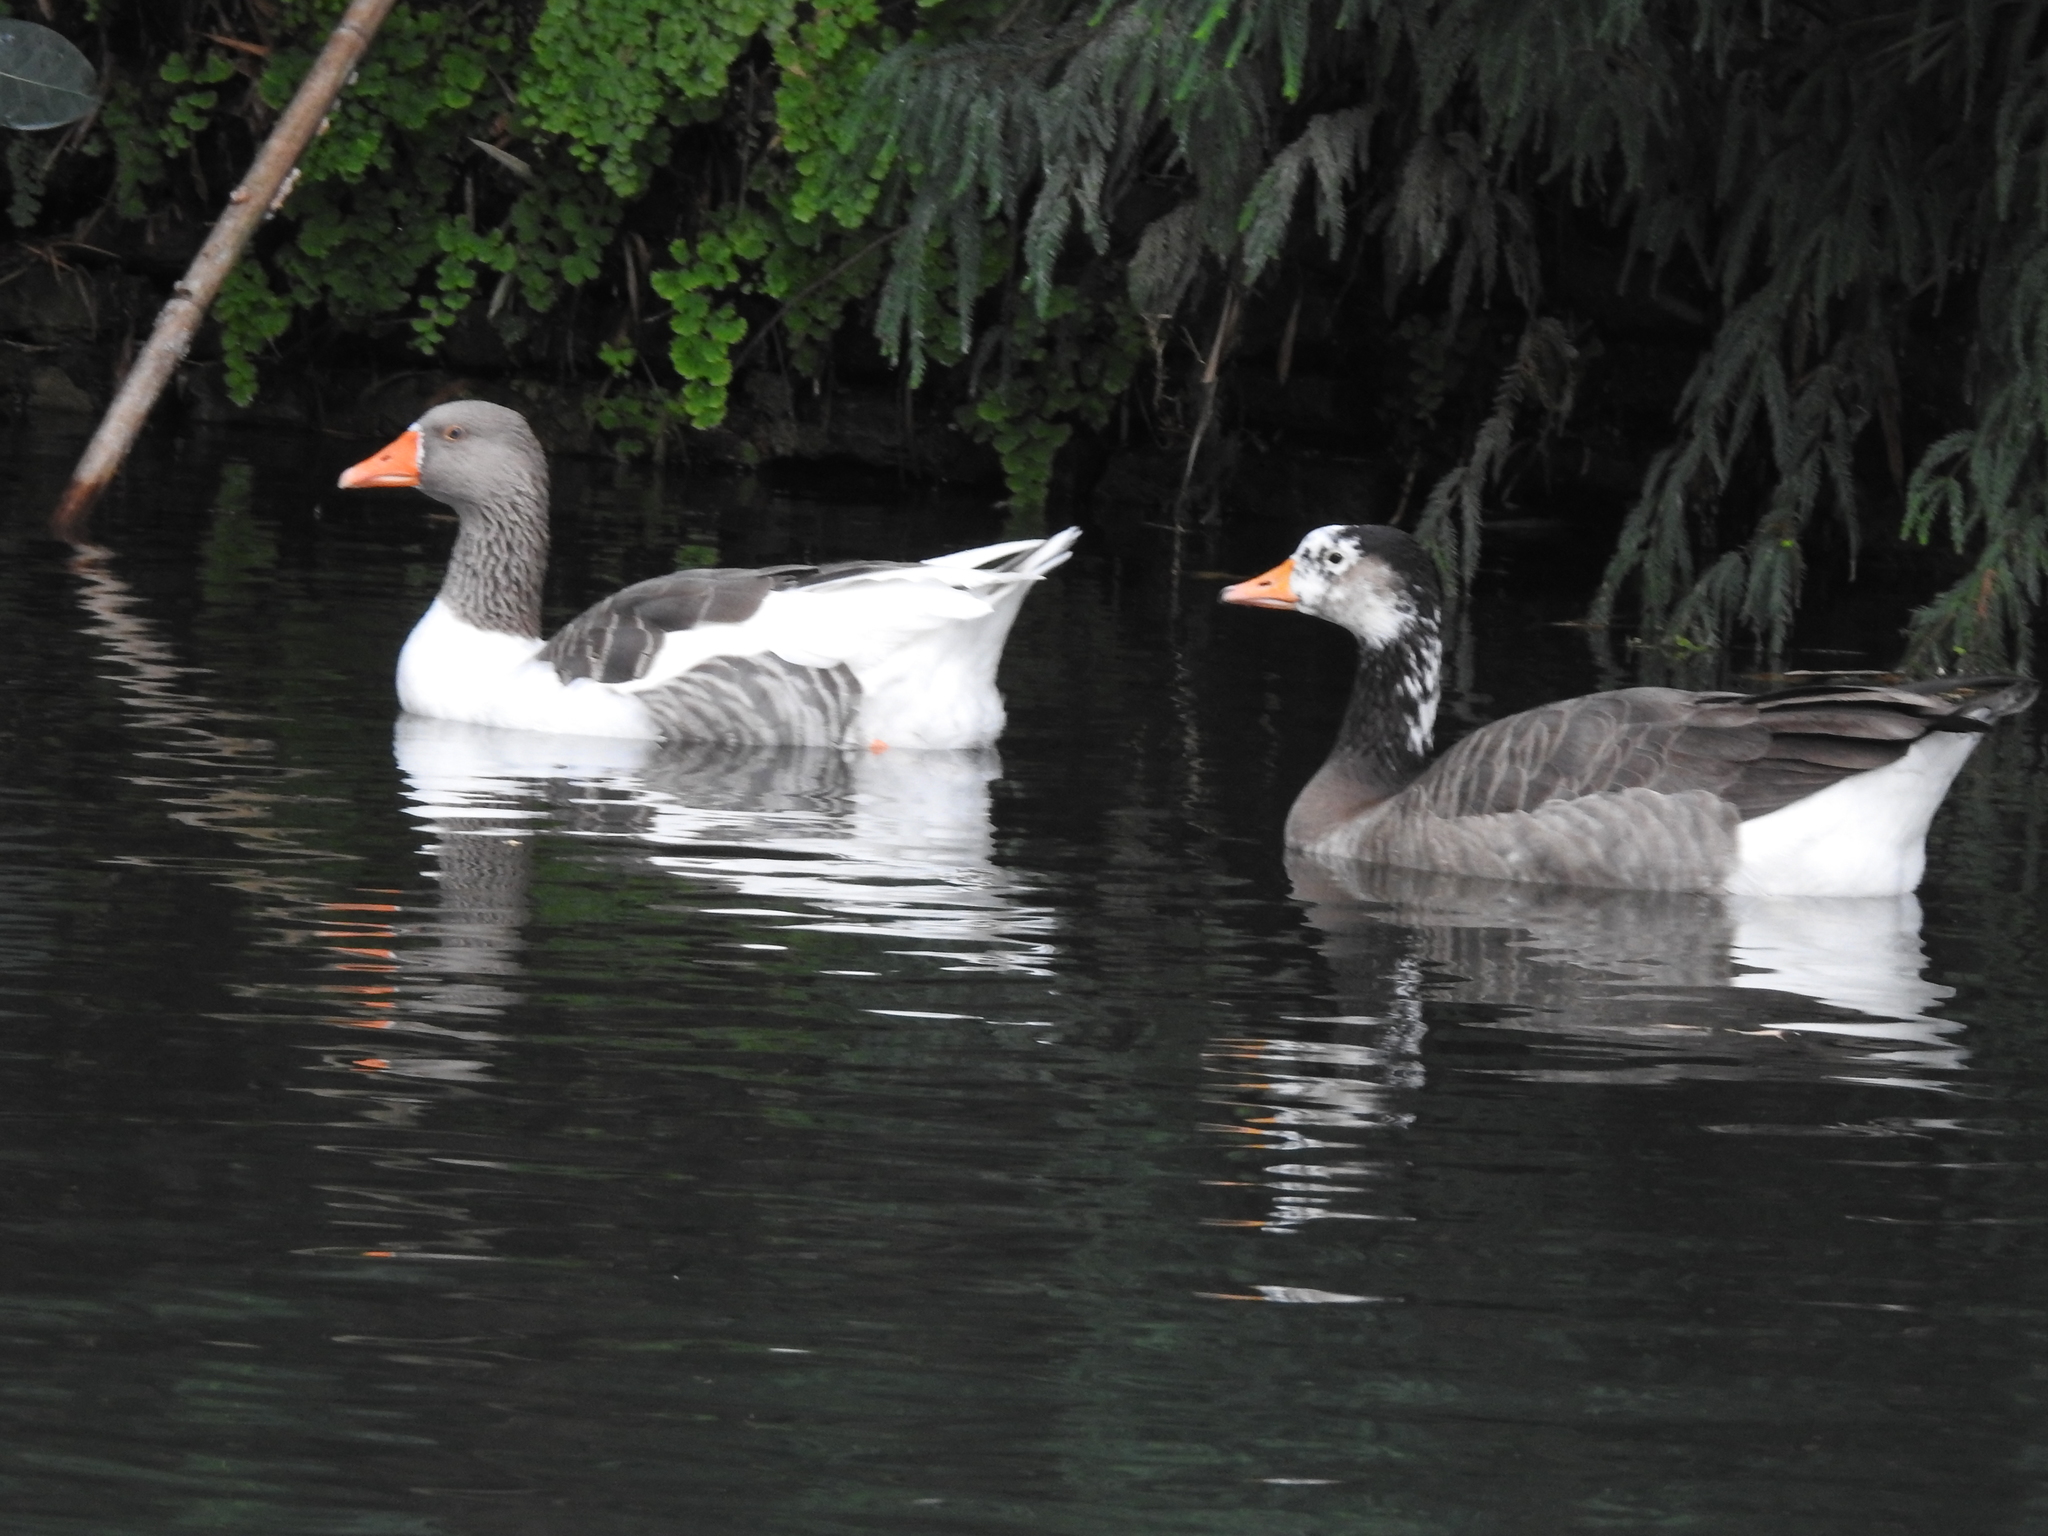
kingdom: Animalia
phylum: Chordata
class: Aves
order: Anseriformes
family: Anatidae
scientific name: Anatidae
